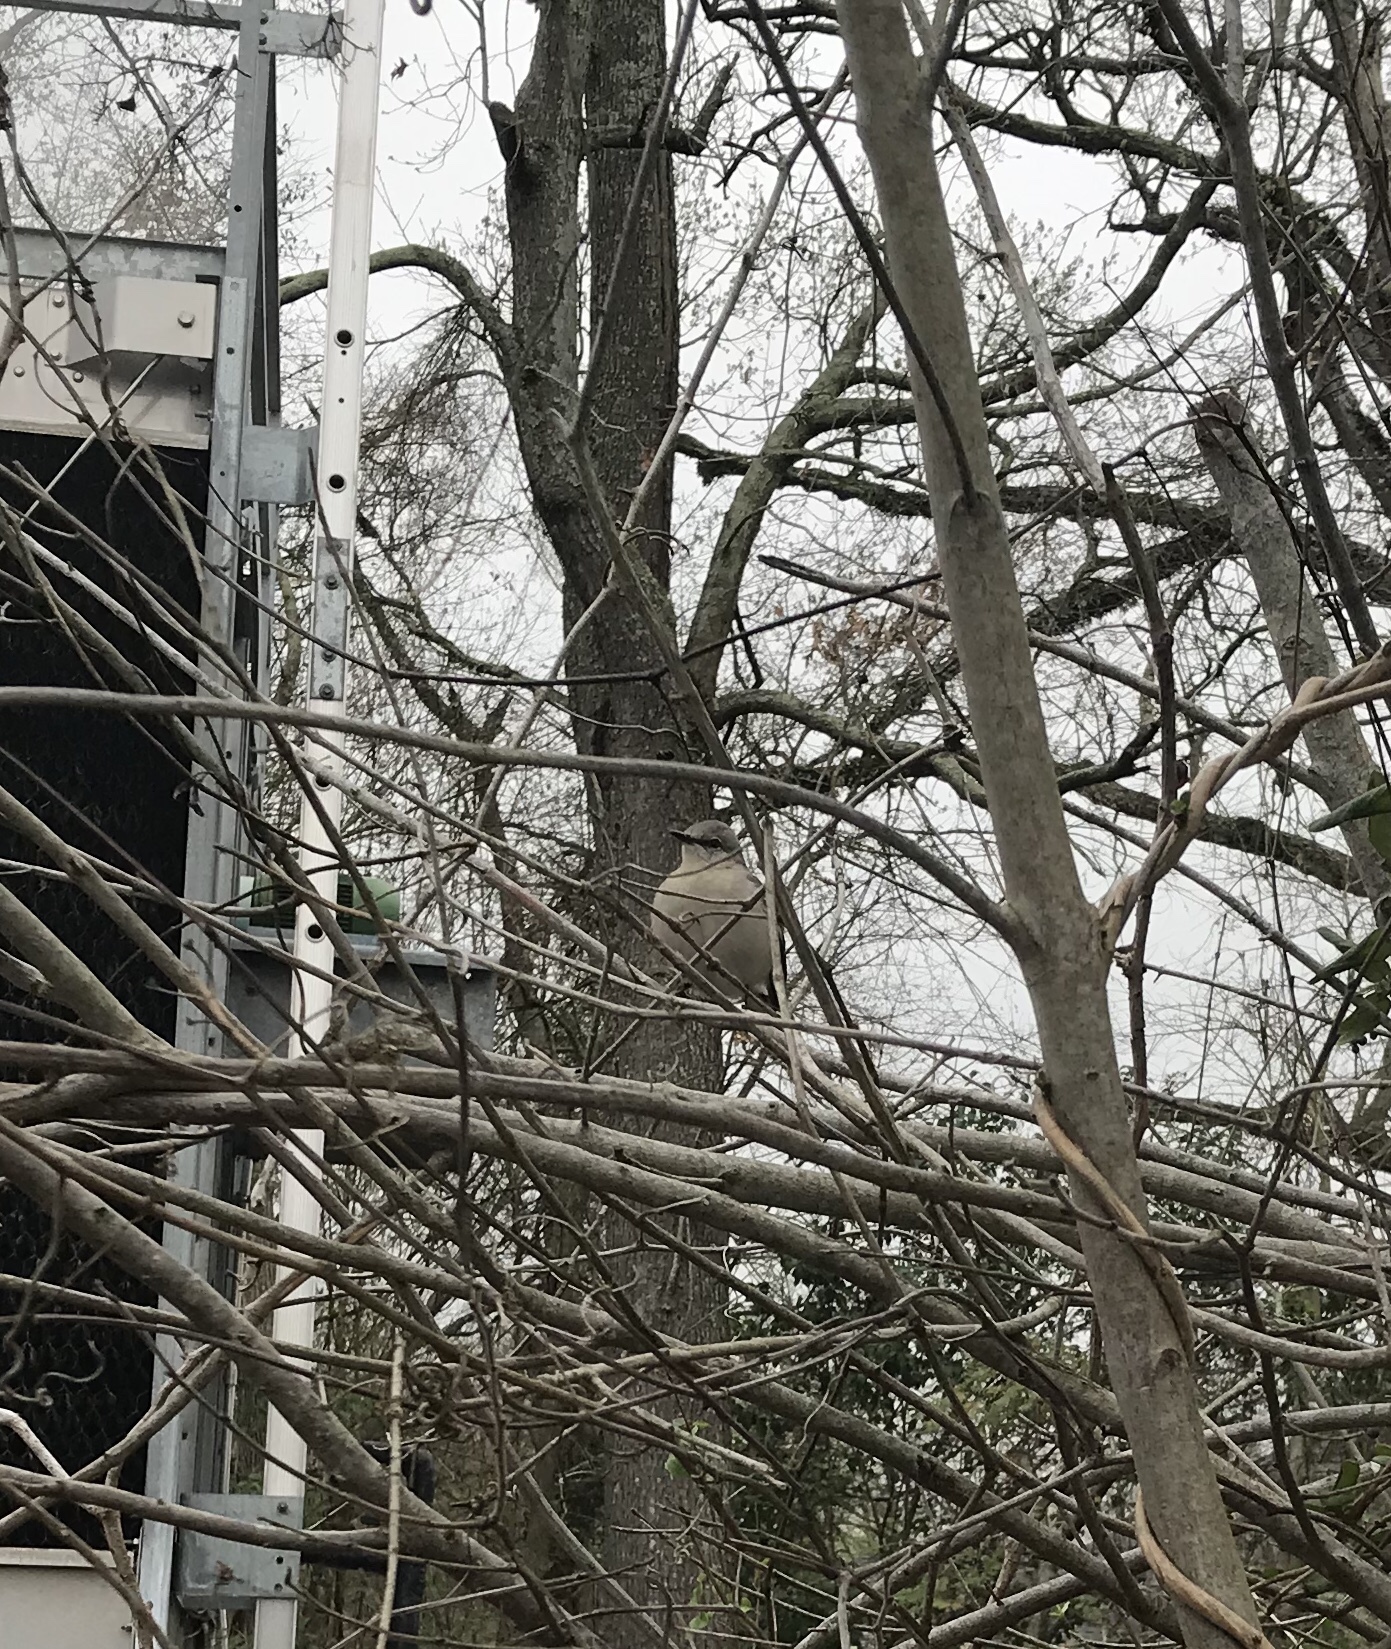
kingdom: Animalia
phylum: Chordata
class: Aves
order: Passeriformes
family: Mimidae
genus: Mimus
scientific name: Mimus polyglottos
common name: Northern mockingbird
